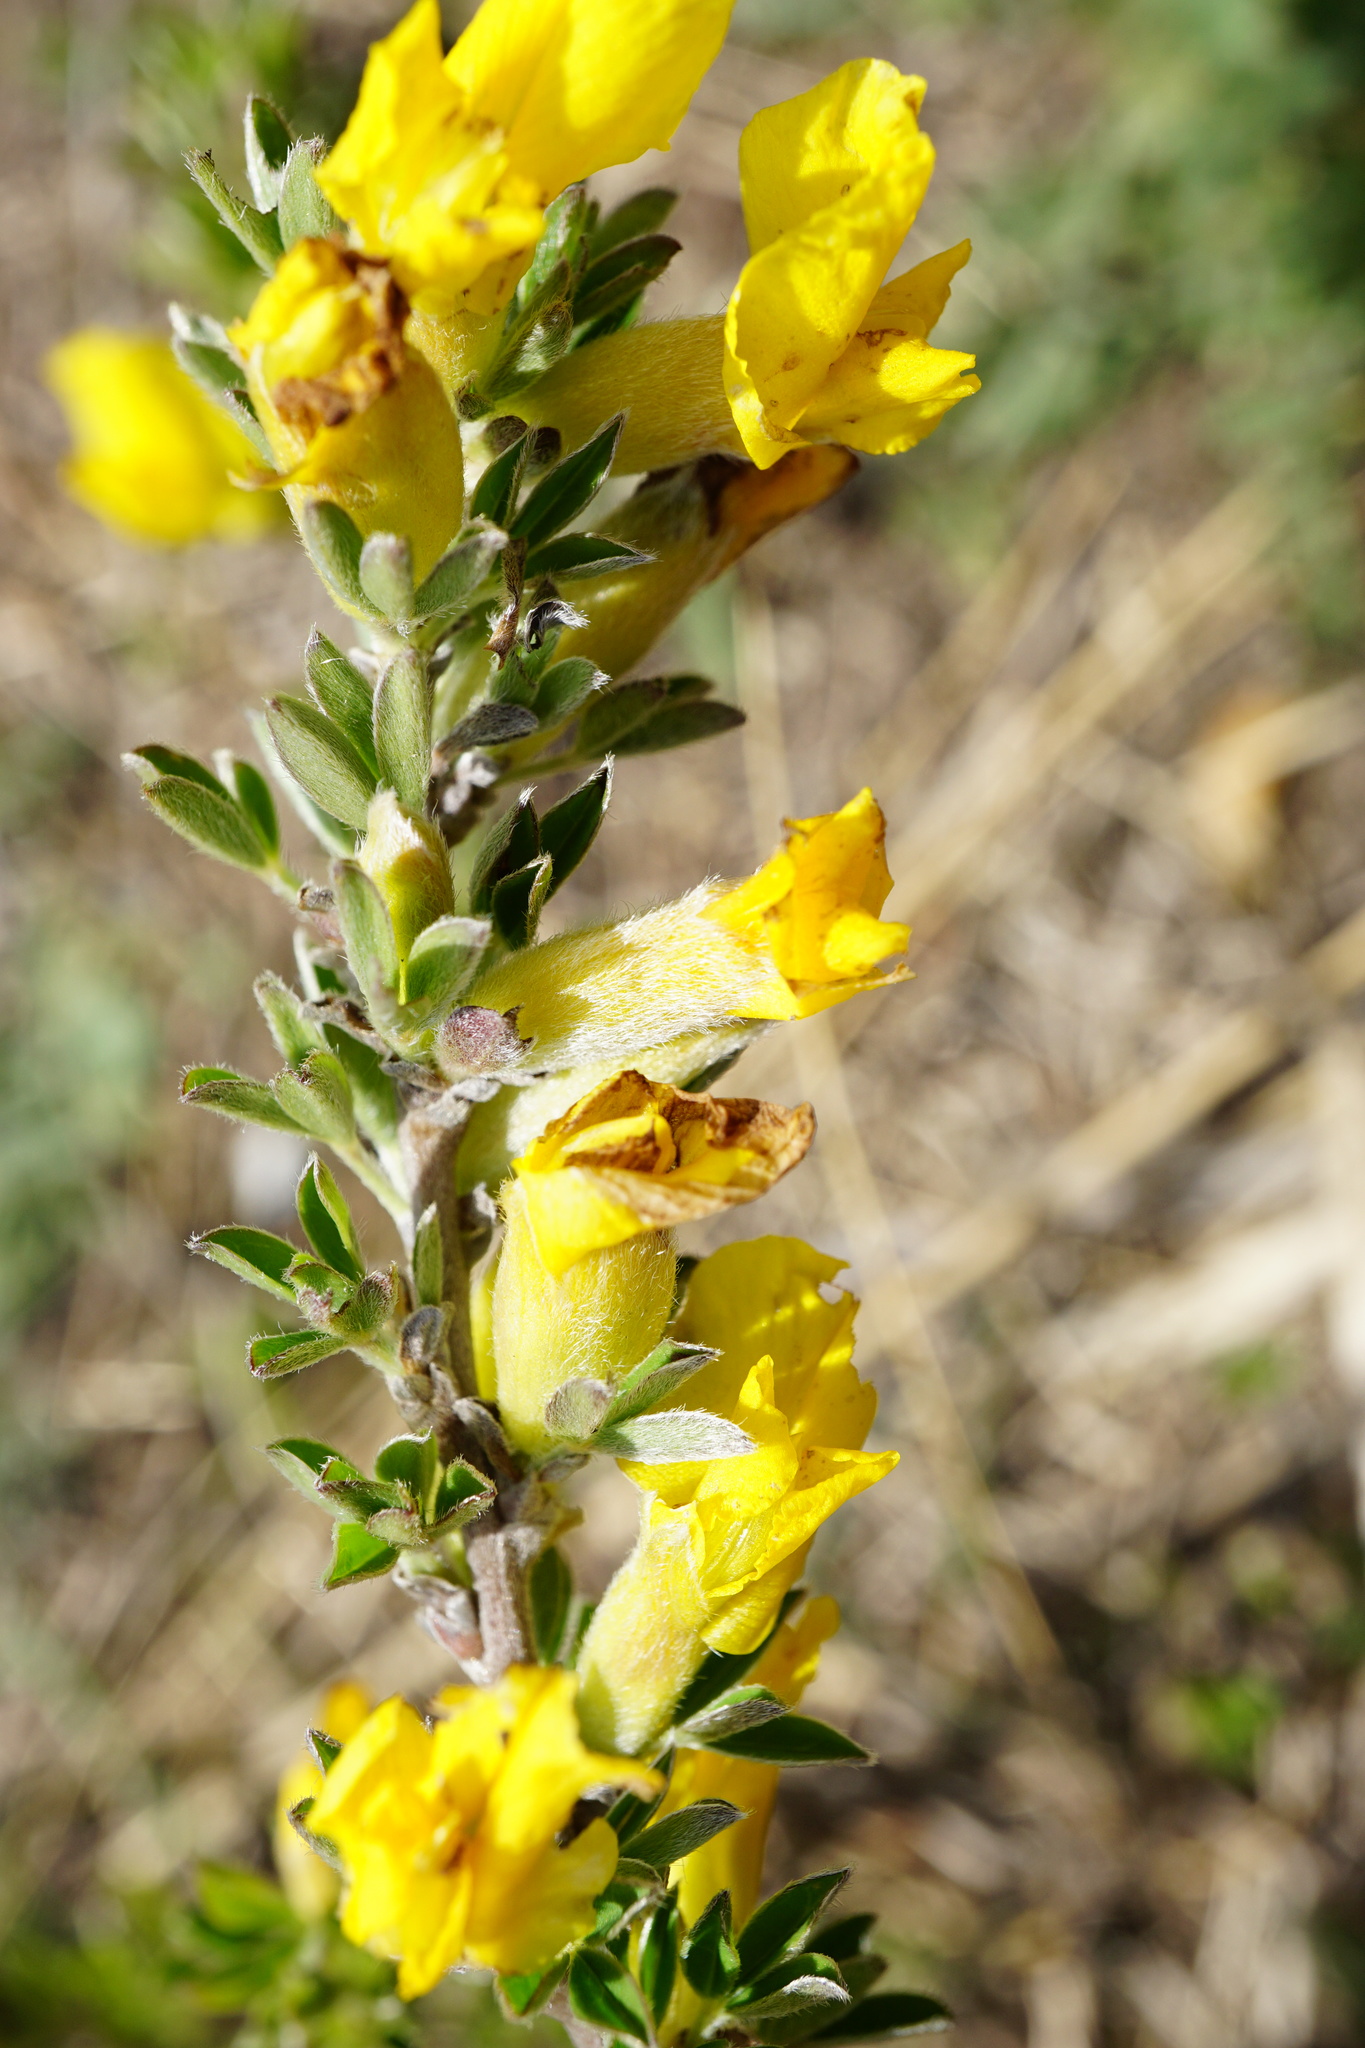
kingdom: Plantae
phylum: Tracheophyta
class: Magnoliopsida
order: Fabales
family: Fabaceae
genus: Chamaecytisus
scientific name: Chamaecytisus ratisbonensis
